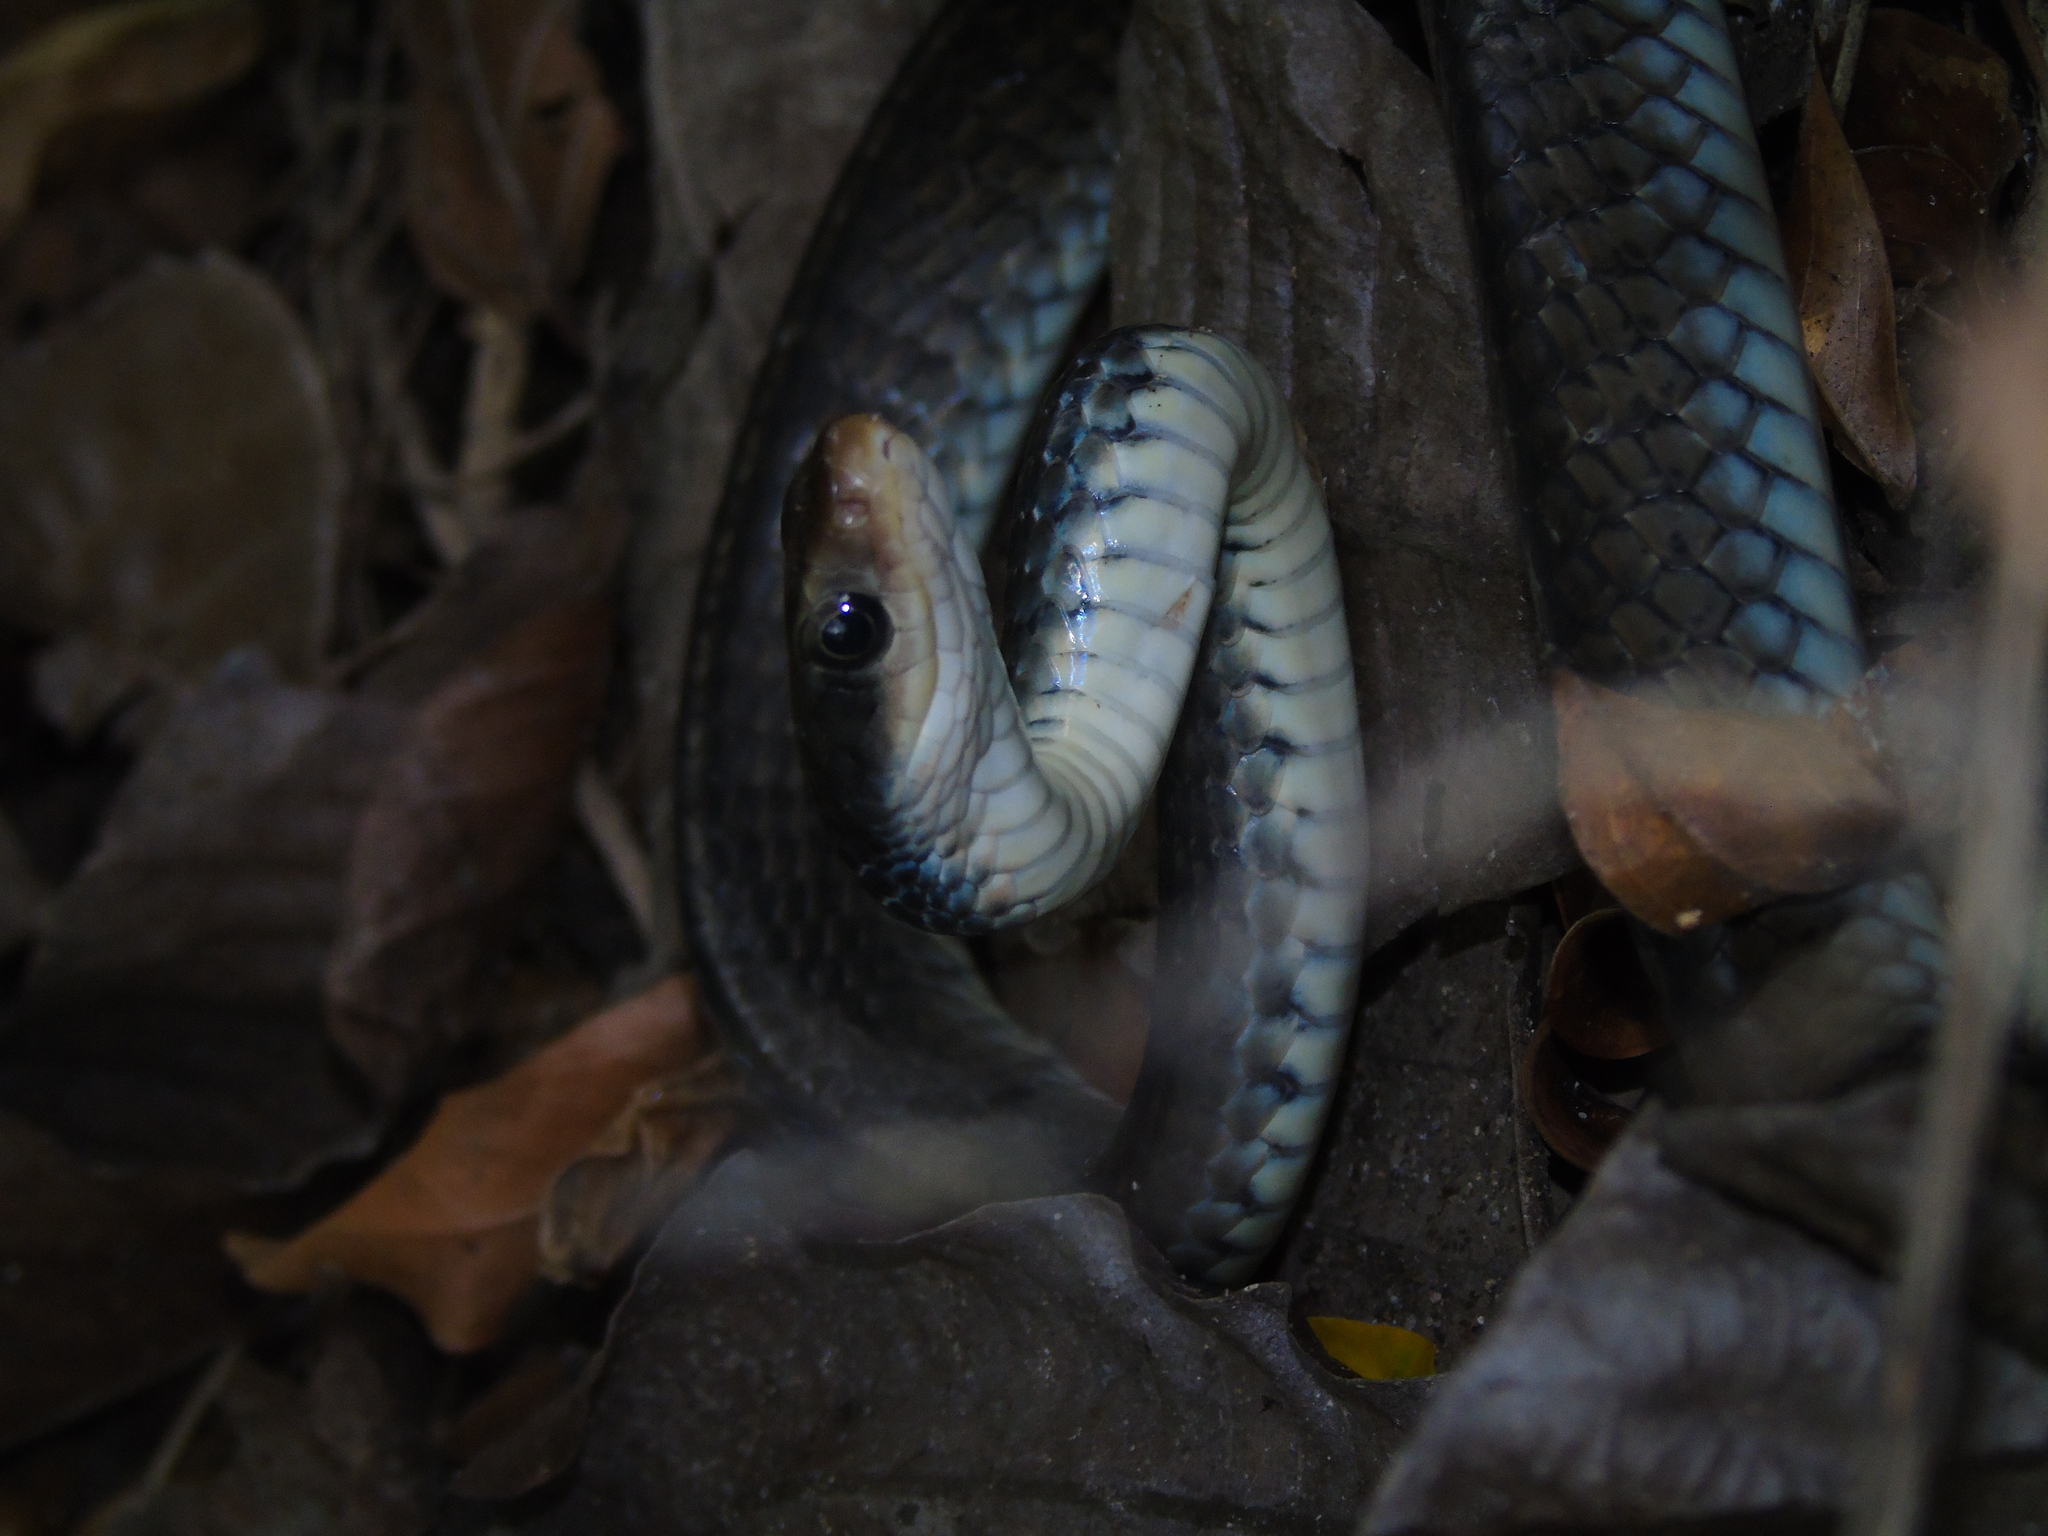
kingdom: Animalia
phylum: Chordata
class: Squamata
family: Colubridae
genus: Chironius
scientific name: Chironius flavopictus
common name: Sipo
